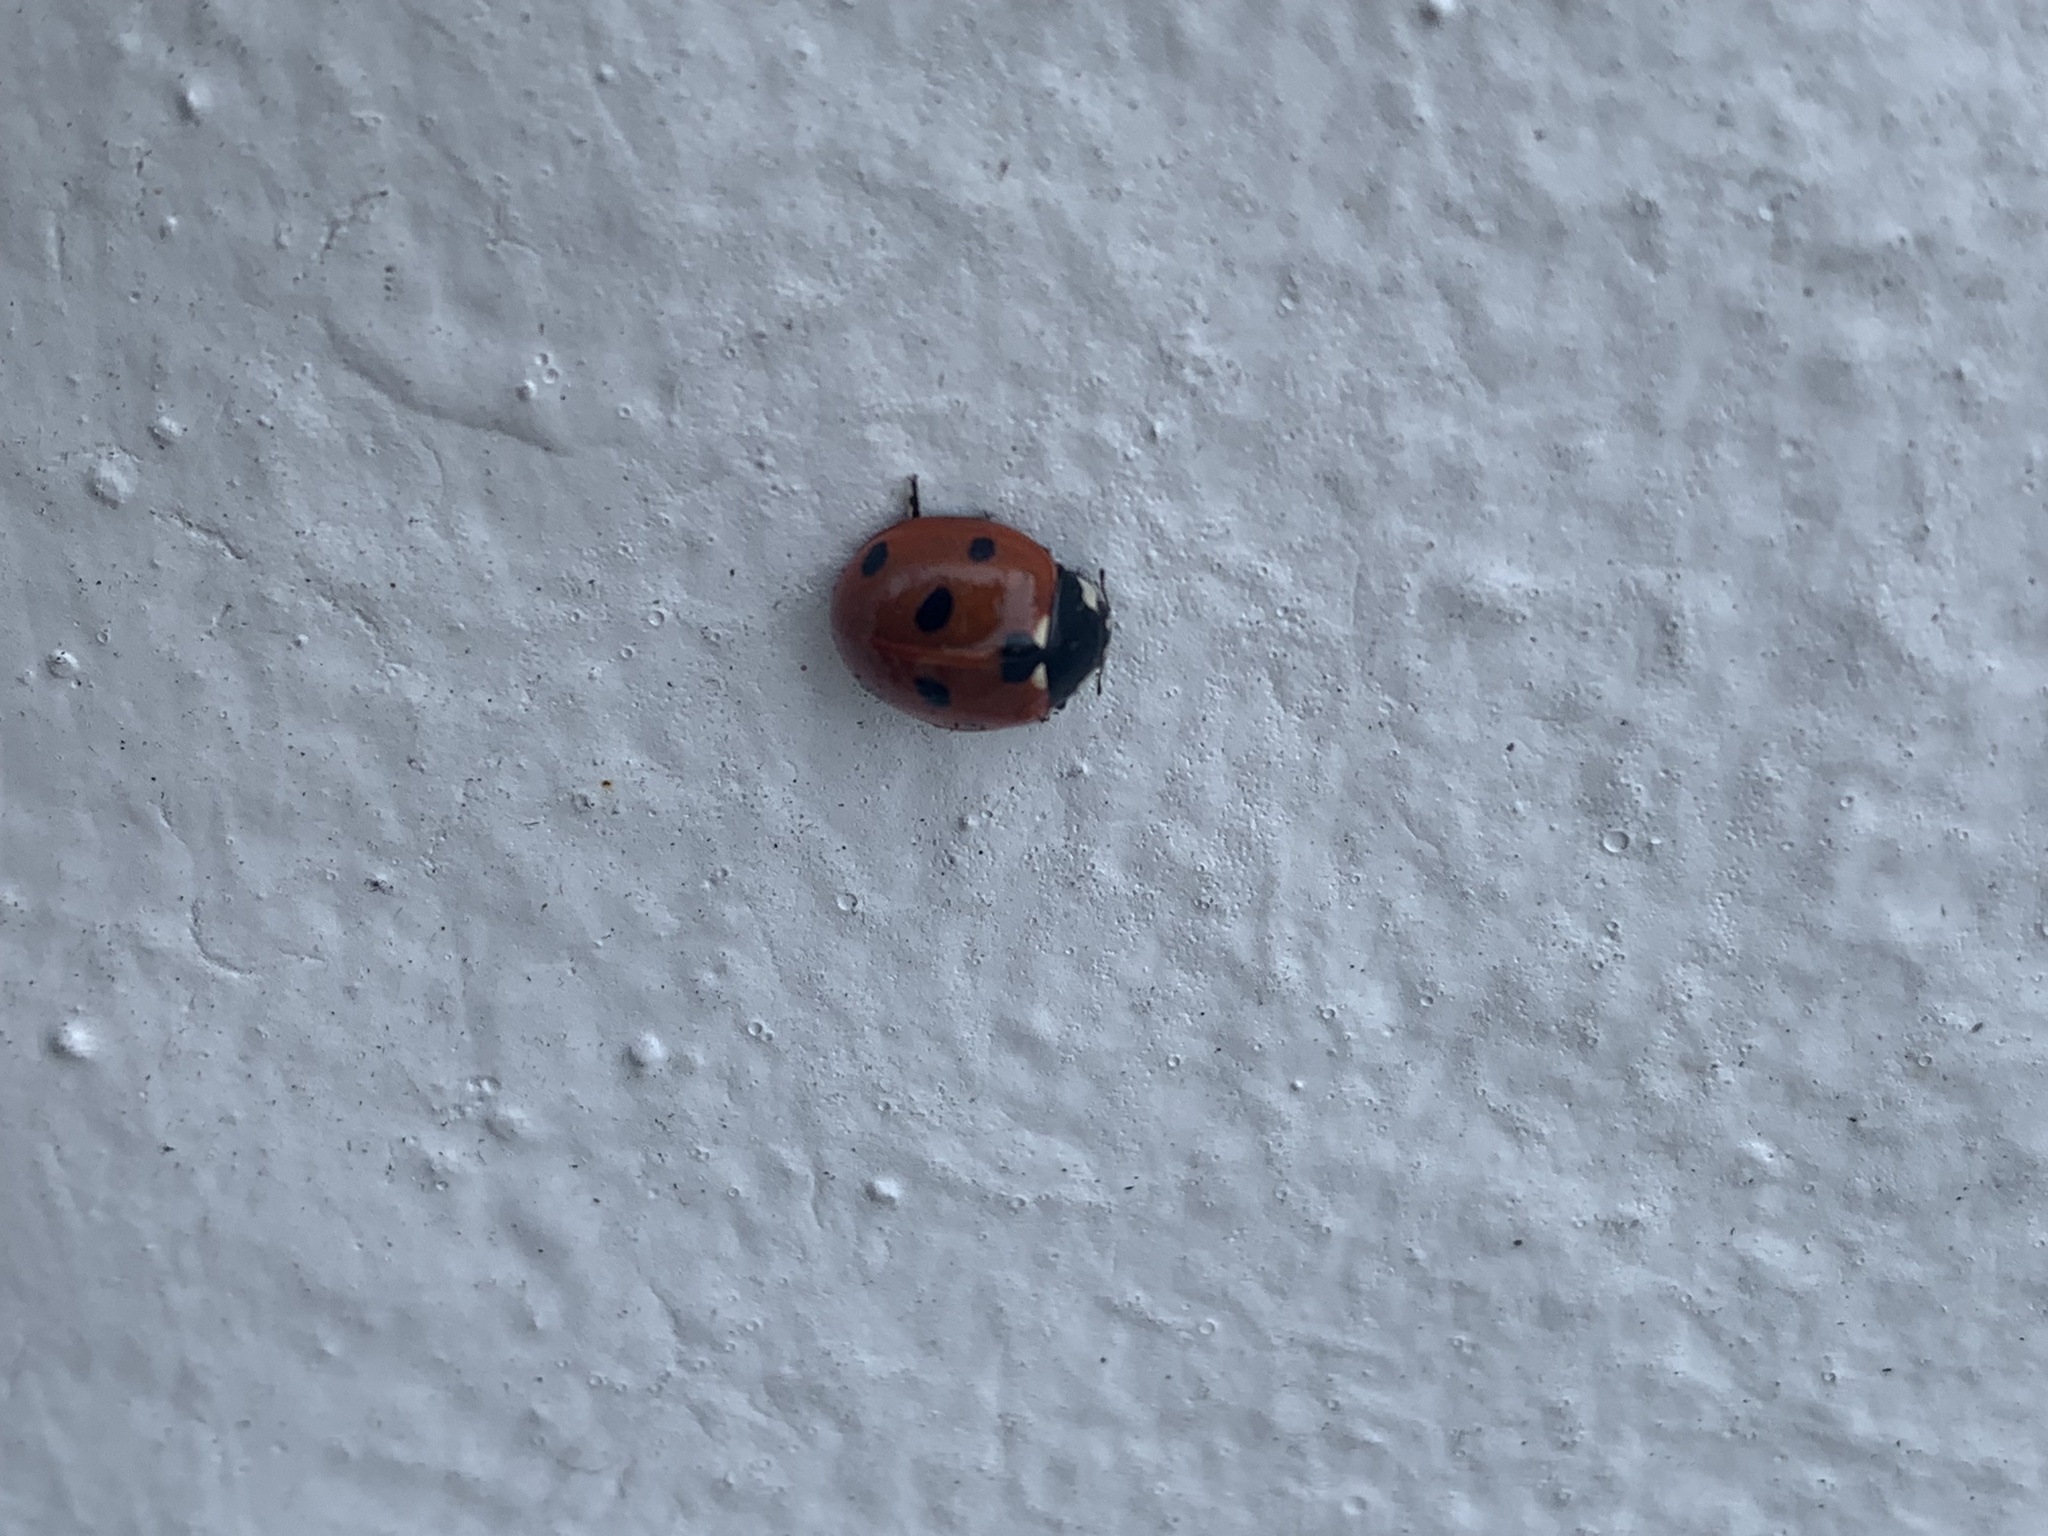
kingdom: Animalia
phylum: Arthropoda
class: Insecta
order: Coleoptera
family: Coccinellidae
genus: Coccinella
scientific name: Coccinella septempunctata
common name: Sevenspotted lady beetle
